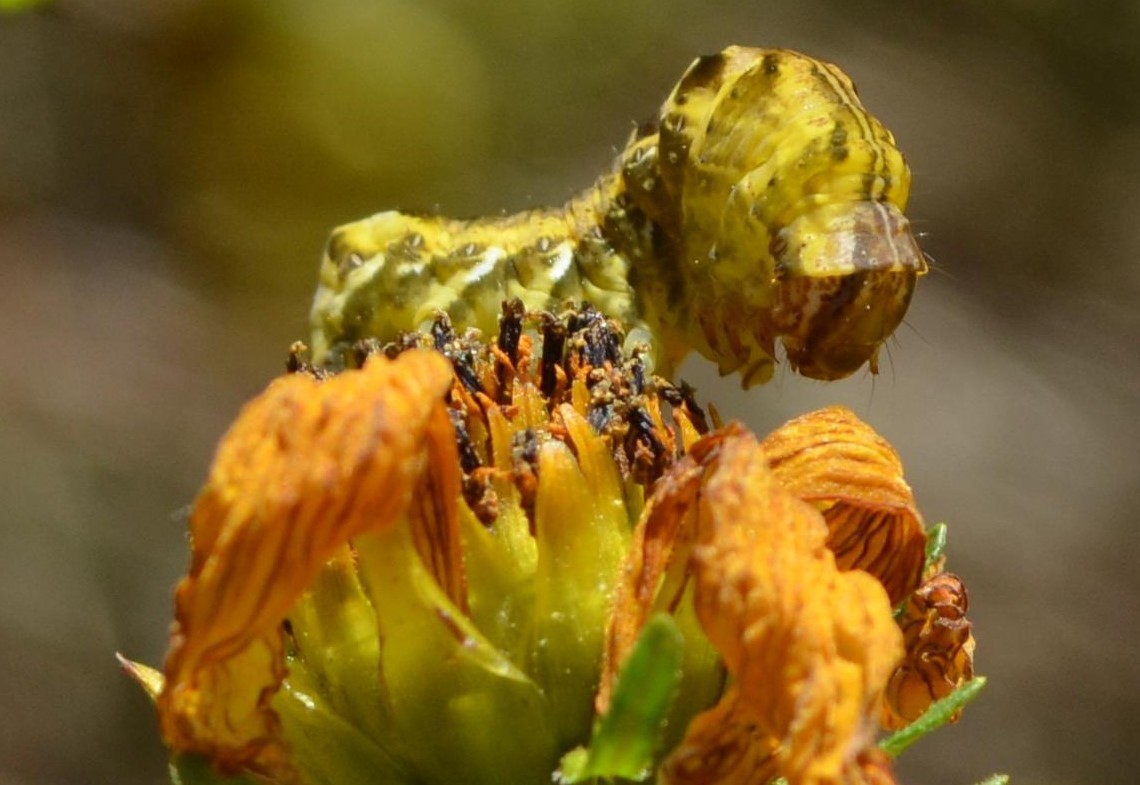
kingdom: Animalia
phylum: Arthropoda
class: Insecta
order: Lepidoptera
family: Noctuidae
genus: Cirrhophanus
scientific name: Cirrhophanus triangulifer
